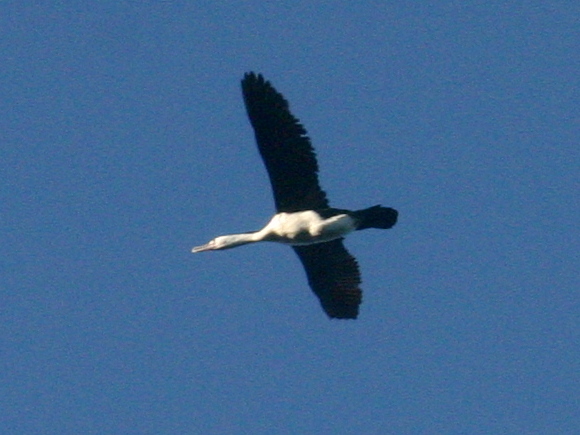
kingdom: Animalia
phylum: Chordata
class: Aves
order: Suliformes
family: Phalacrocoracidae
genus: Phalacrocorax
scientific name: Phalacrocorax varius
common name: Pied cormorant
